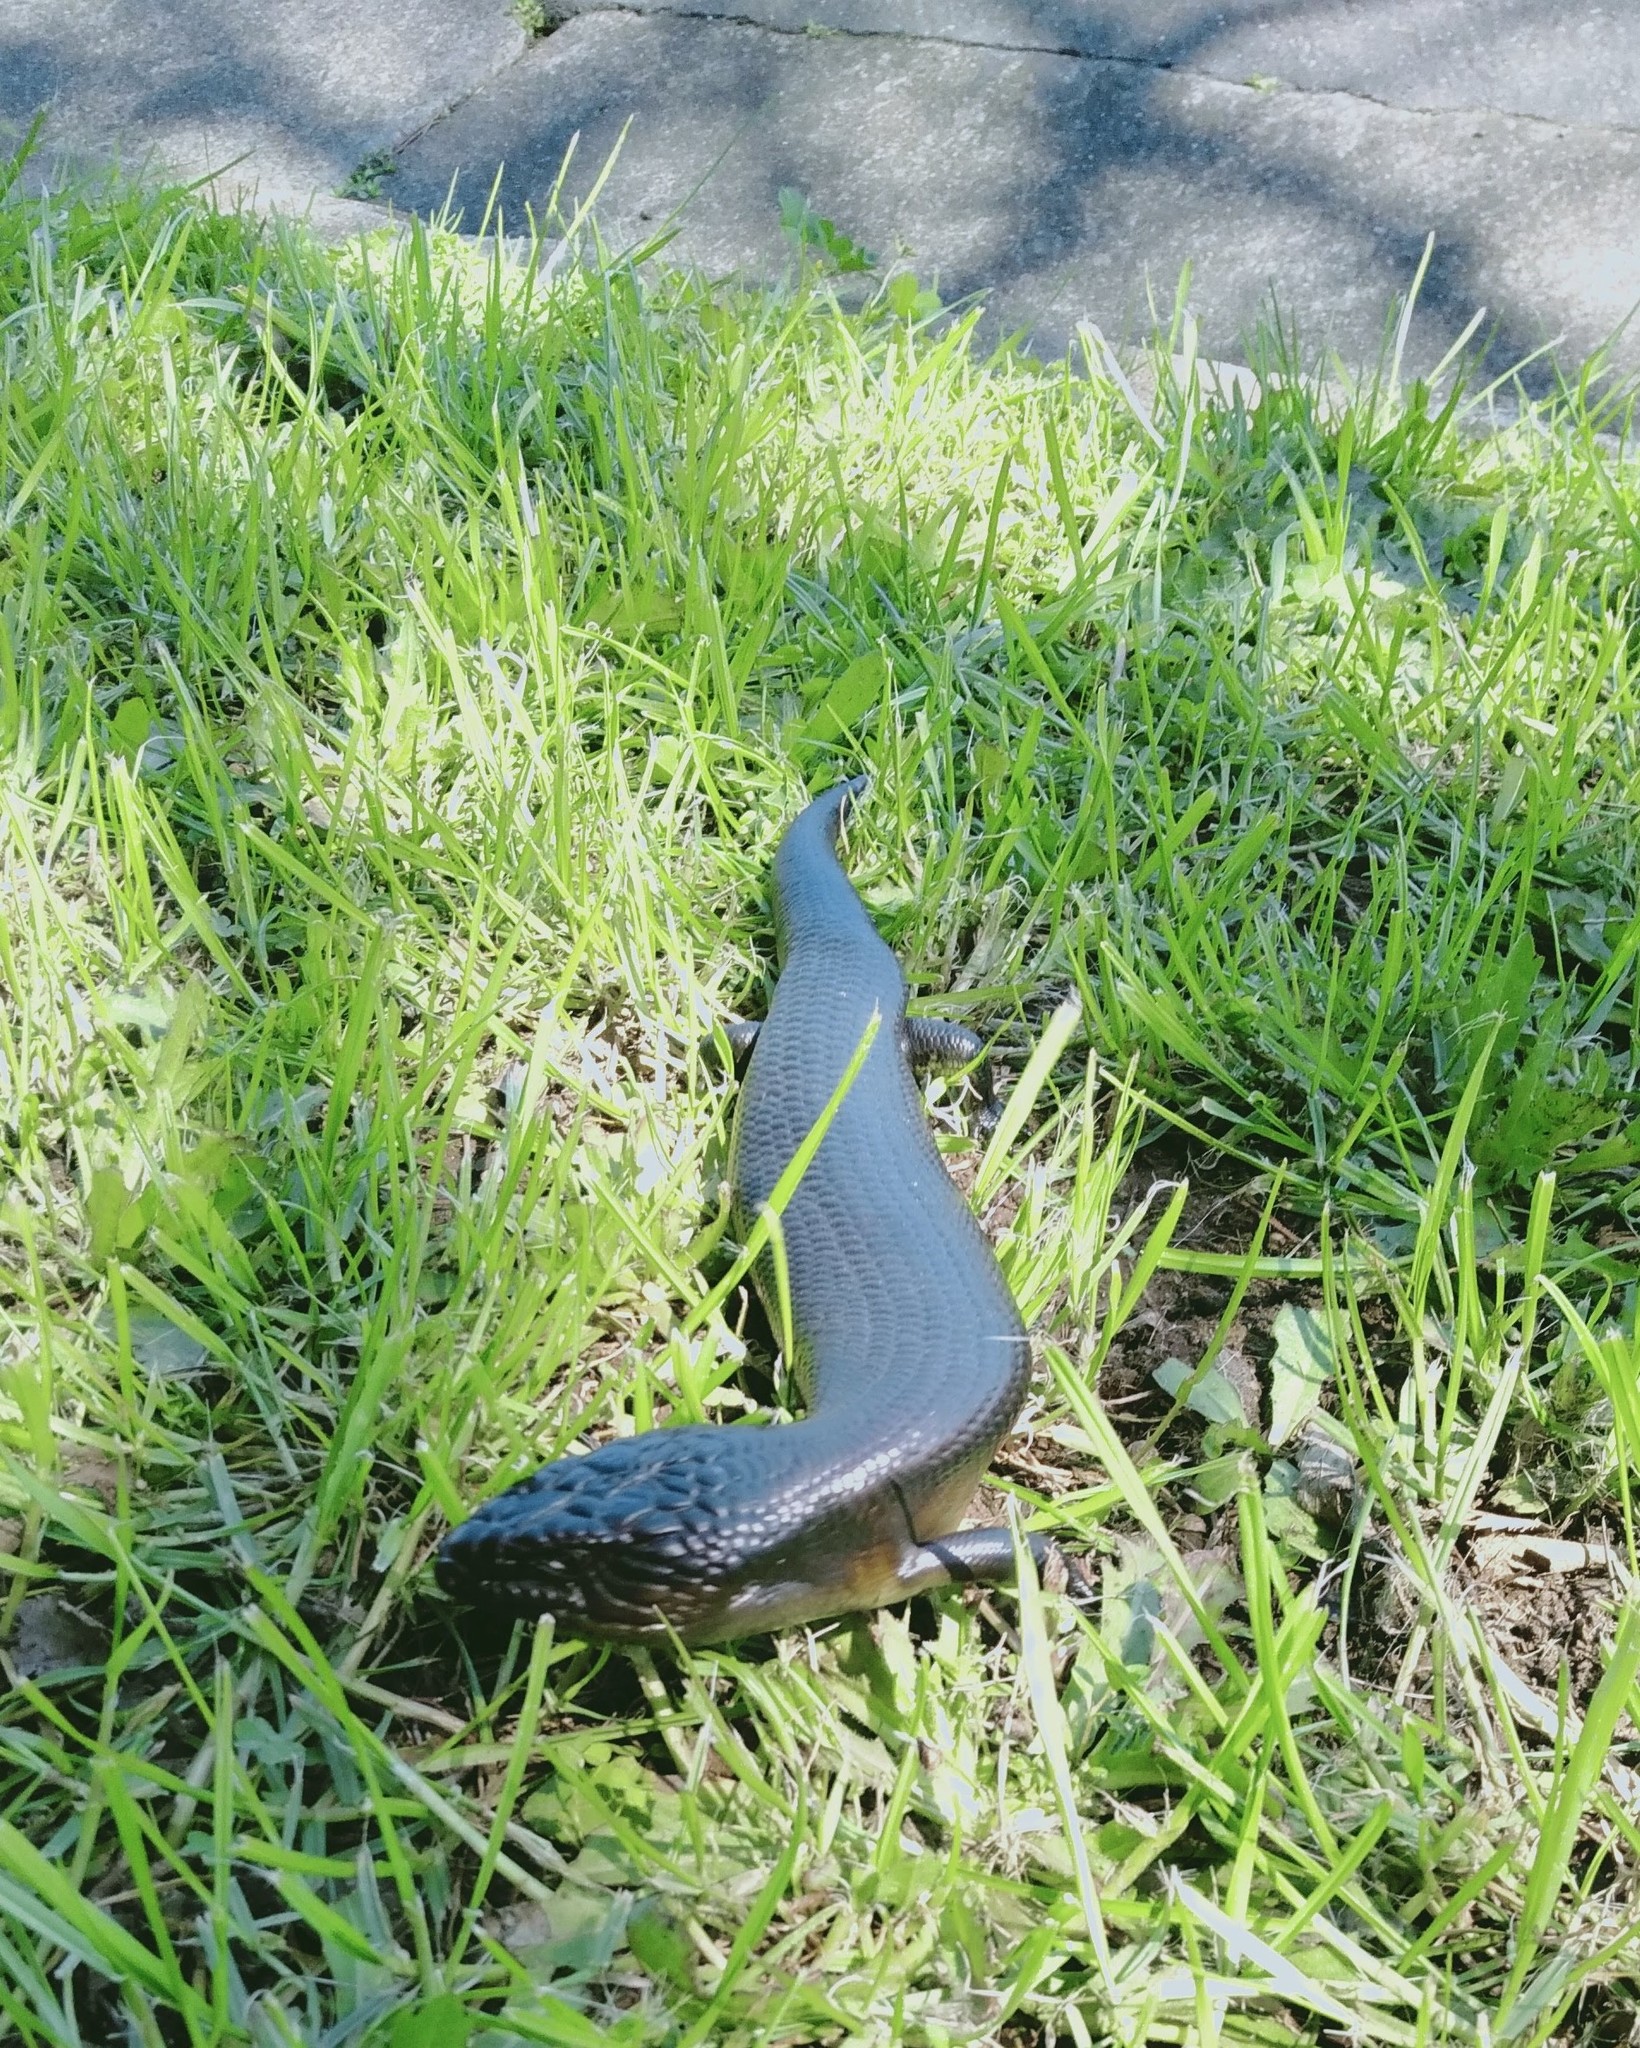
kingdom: Animalia
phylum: Chordata
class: Squamata
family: Scincidae
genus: Tiliqua
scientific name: Tiliqua scincoides
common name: Common bluetongue
